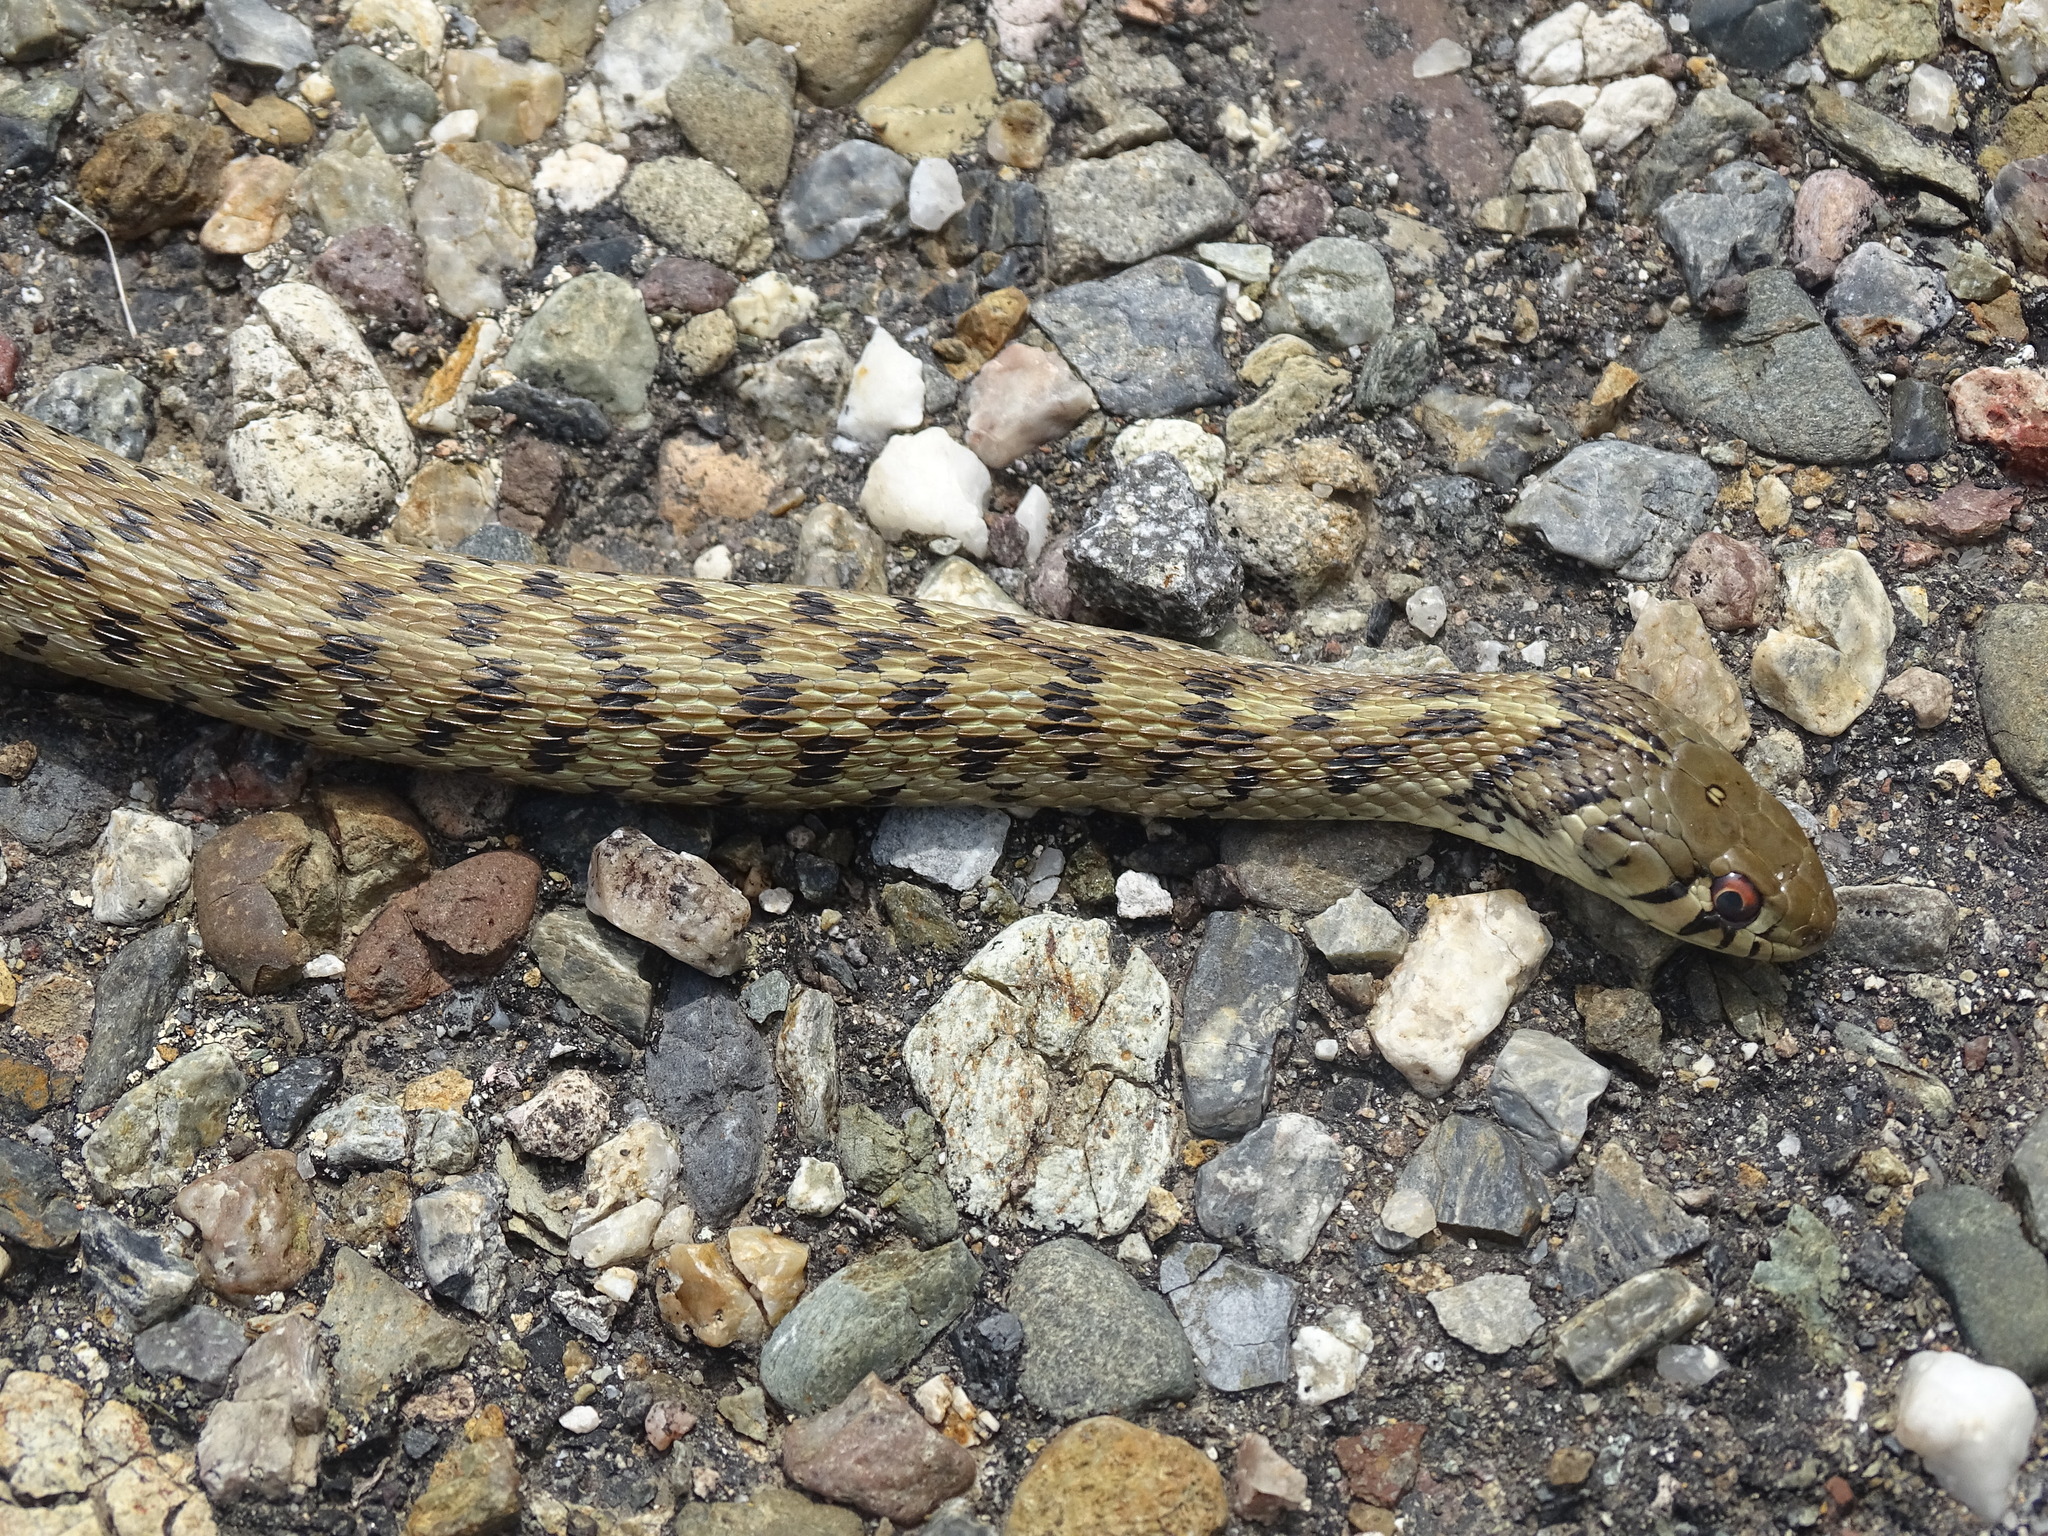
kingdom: Animalia
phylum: Chordata
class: Squamata
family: Colubridae
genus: Thamnophis
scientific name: Thamnophis marcianus
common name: Checkered garter snake
